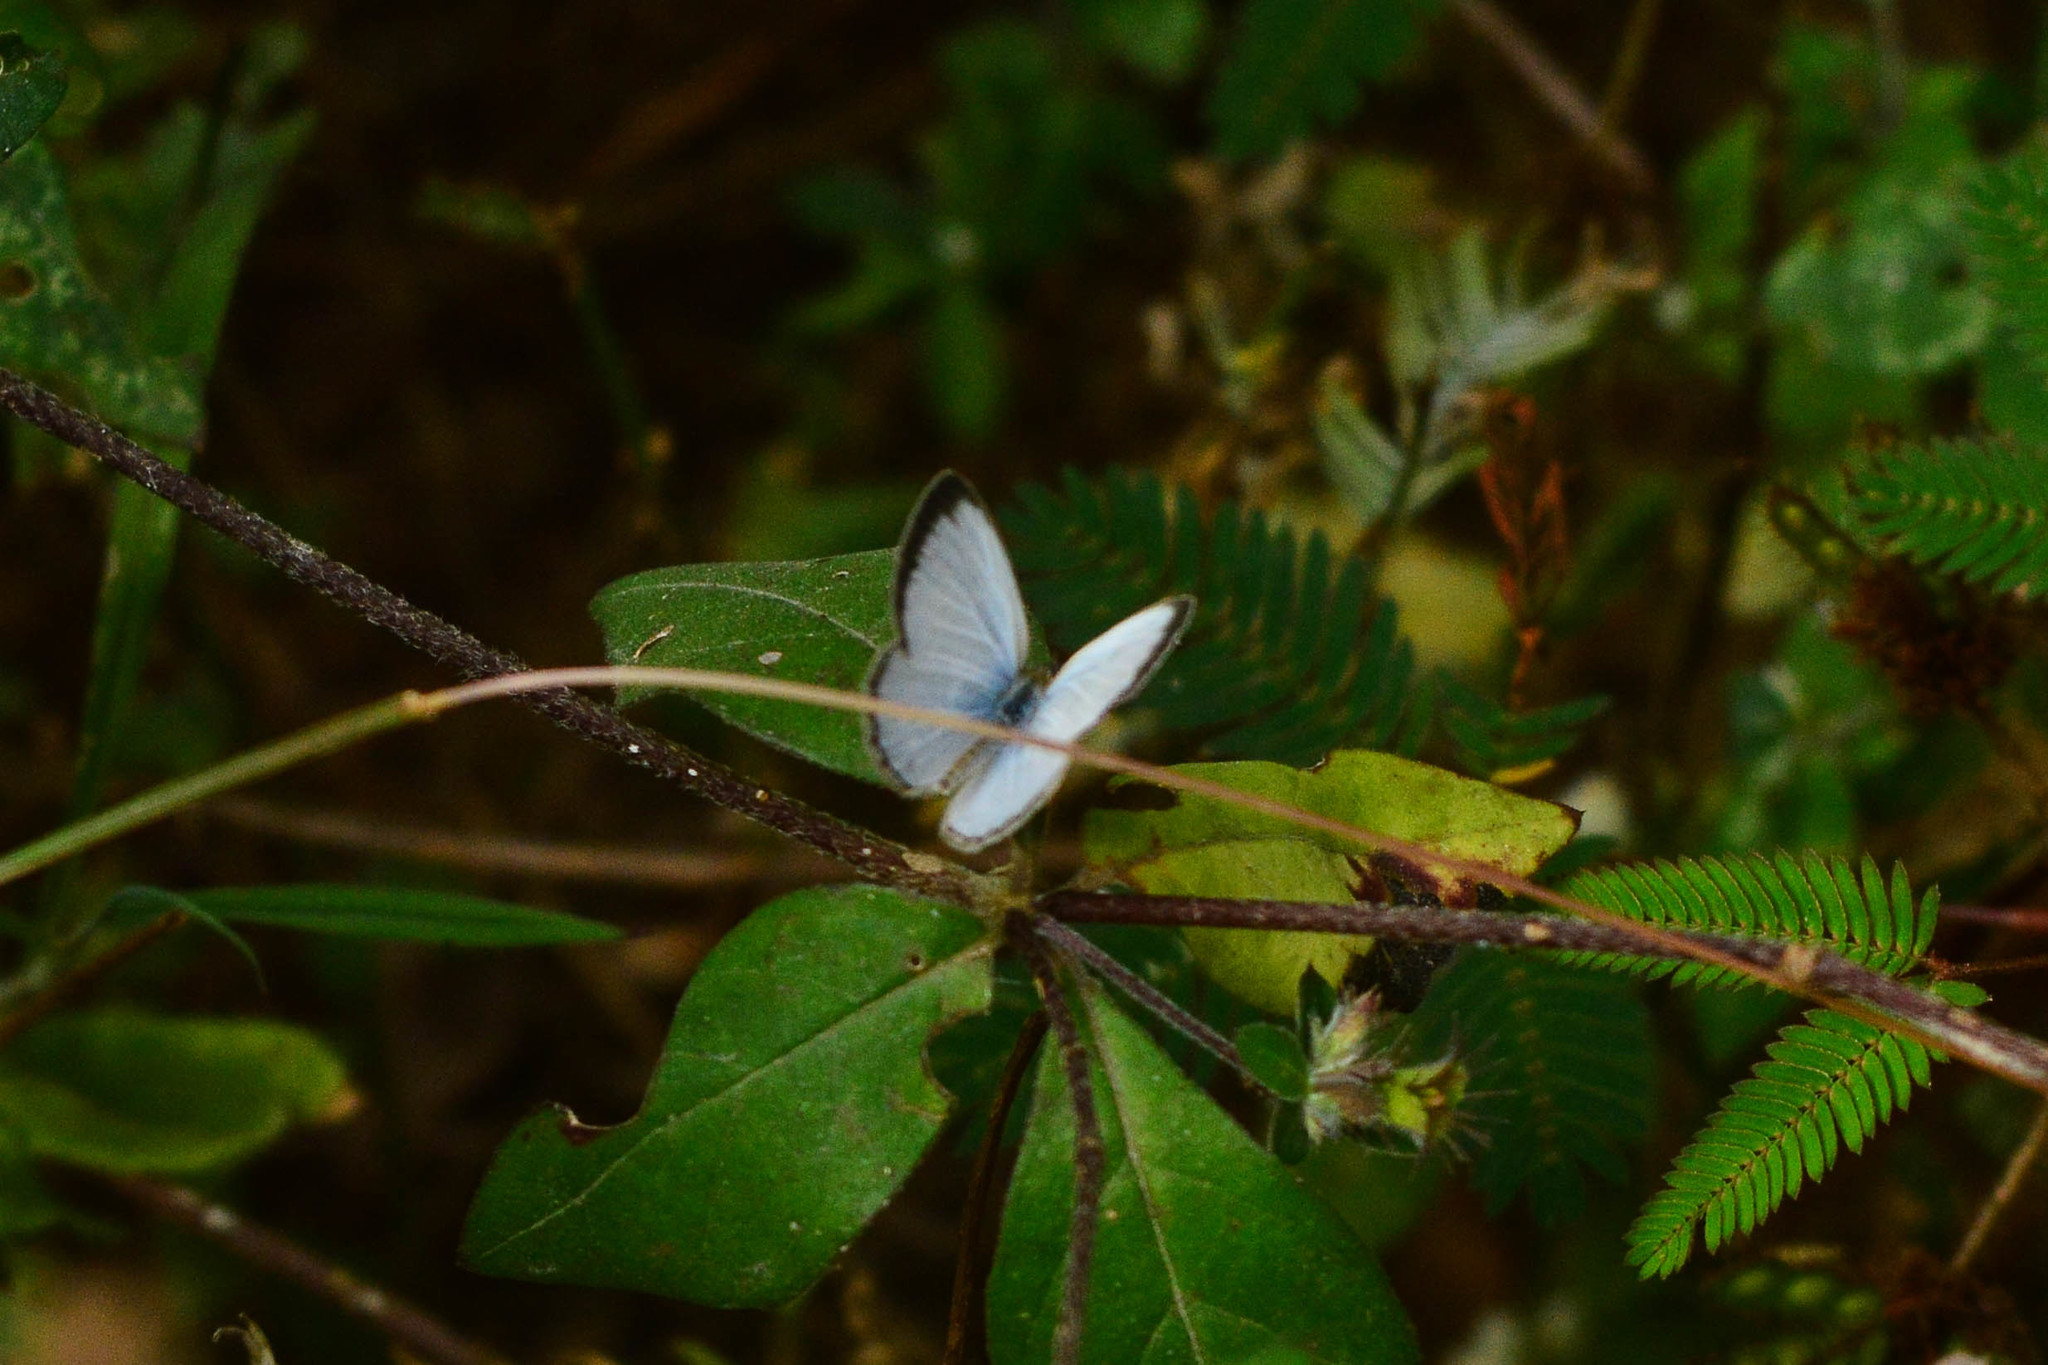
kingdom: Animalia
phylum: Arthropoda
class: Insecta
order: Lepidoptera
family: Lycaenidae
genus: Pseudozizeeria
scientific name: Pseudozizeeria maha
